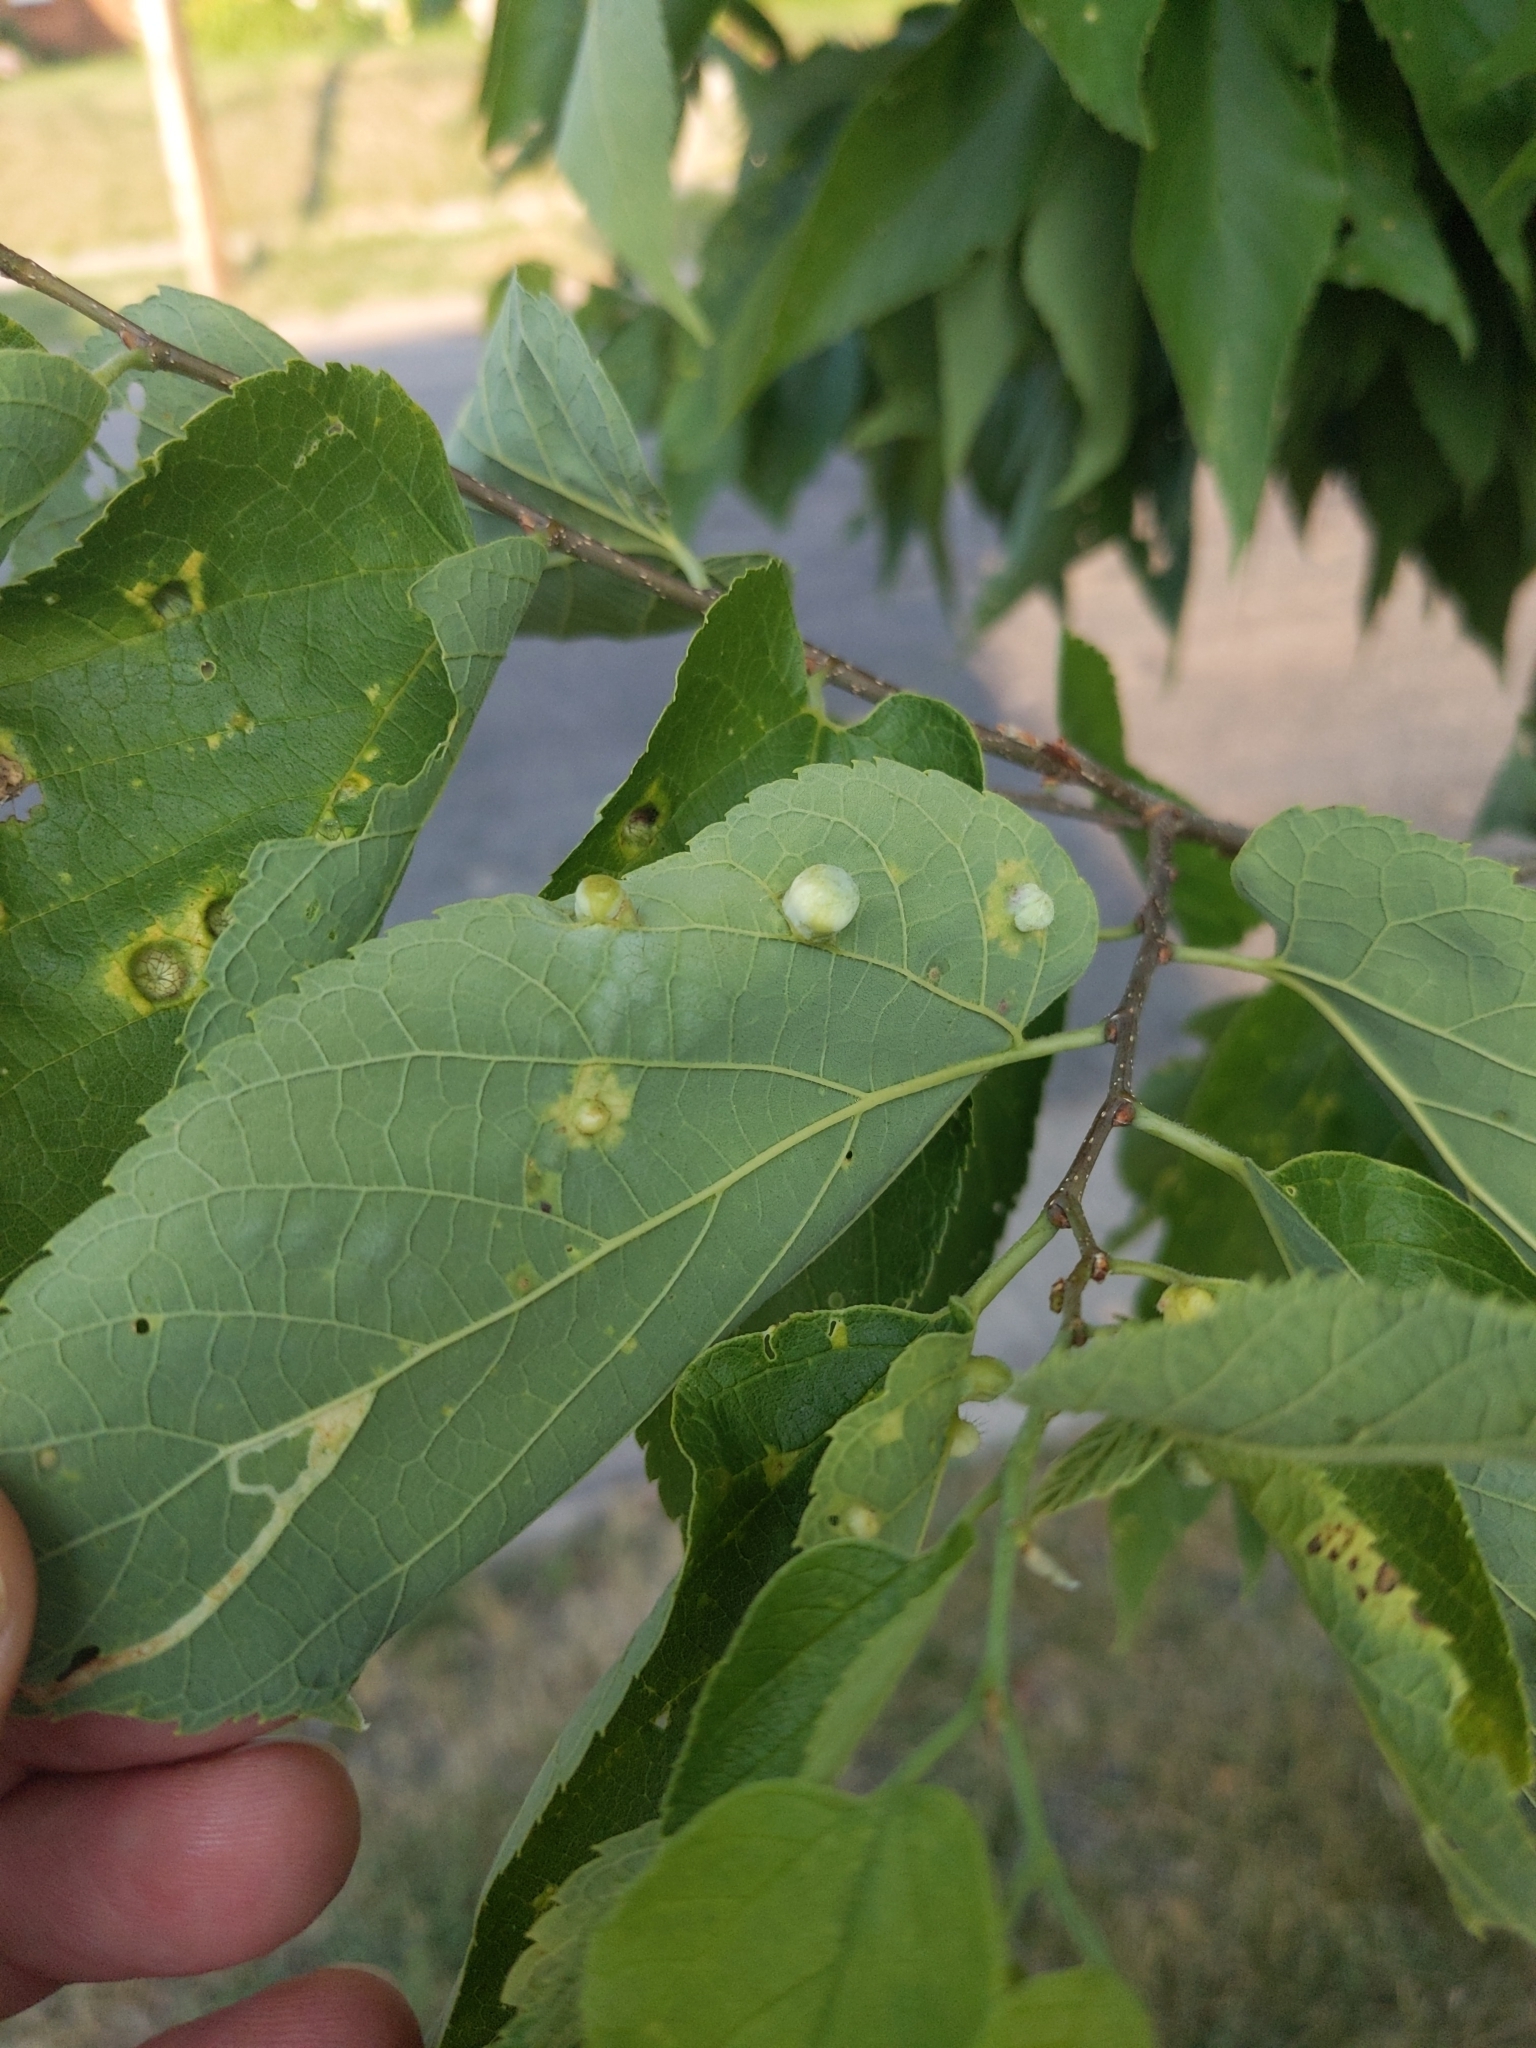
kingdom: Animalia
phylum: Arthropoda
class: Insecta
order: Hemiptera
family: Aphalaridae
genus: Pachypsylla
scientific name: Pachypsylla celtidismamma
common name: Hackberry nipplegall psyllid
